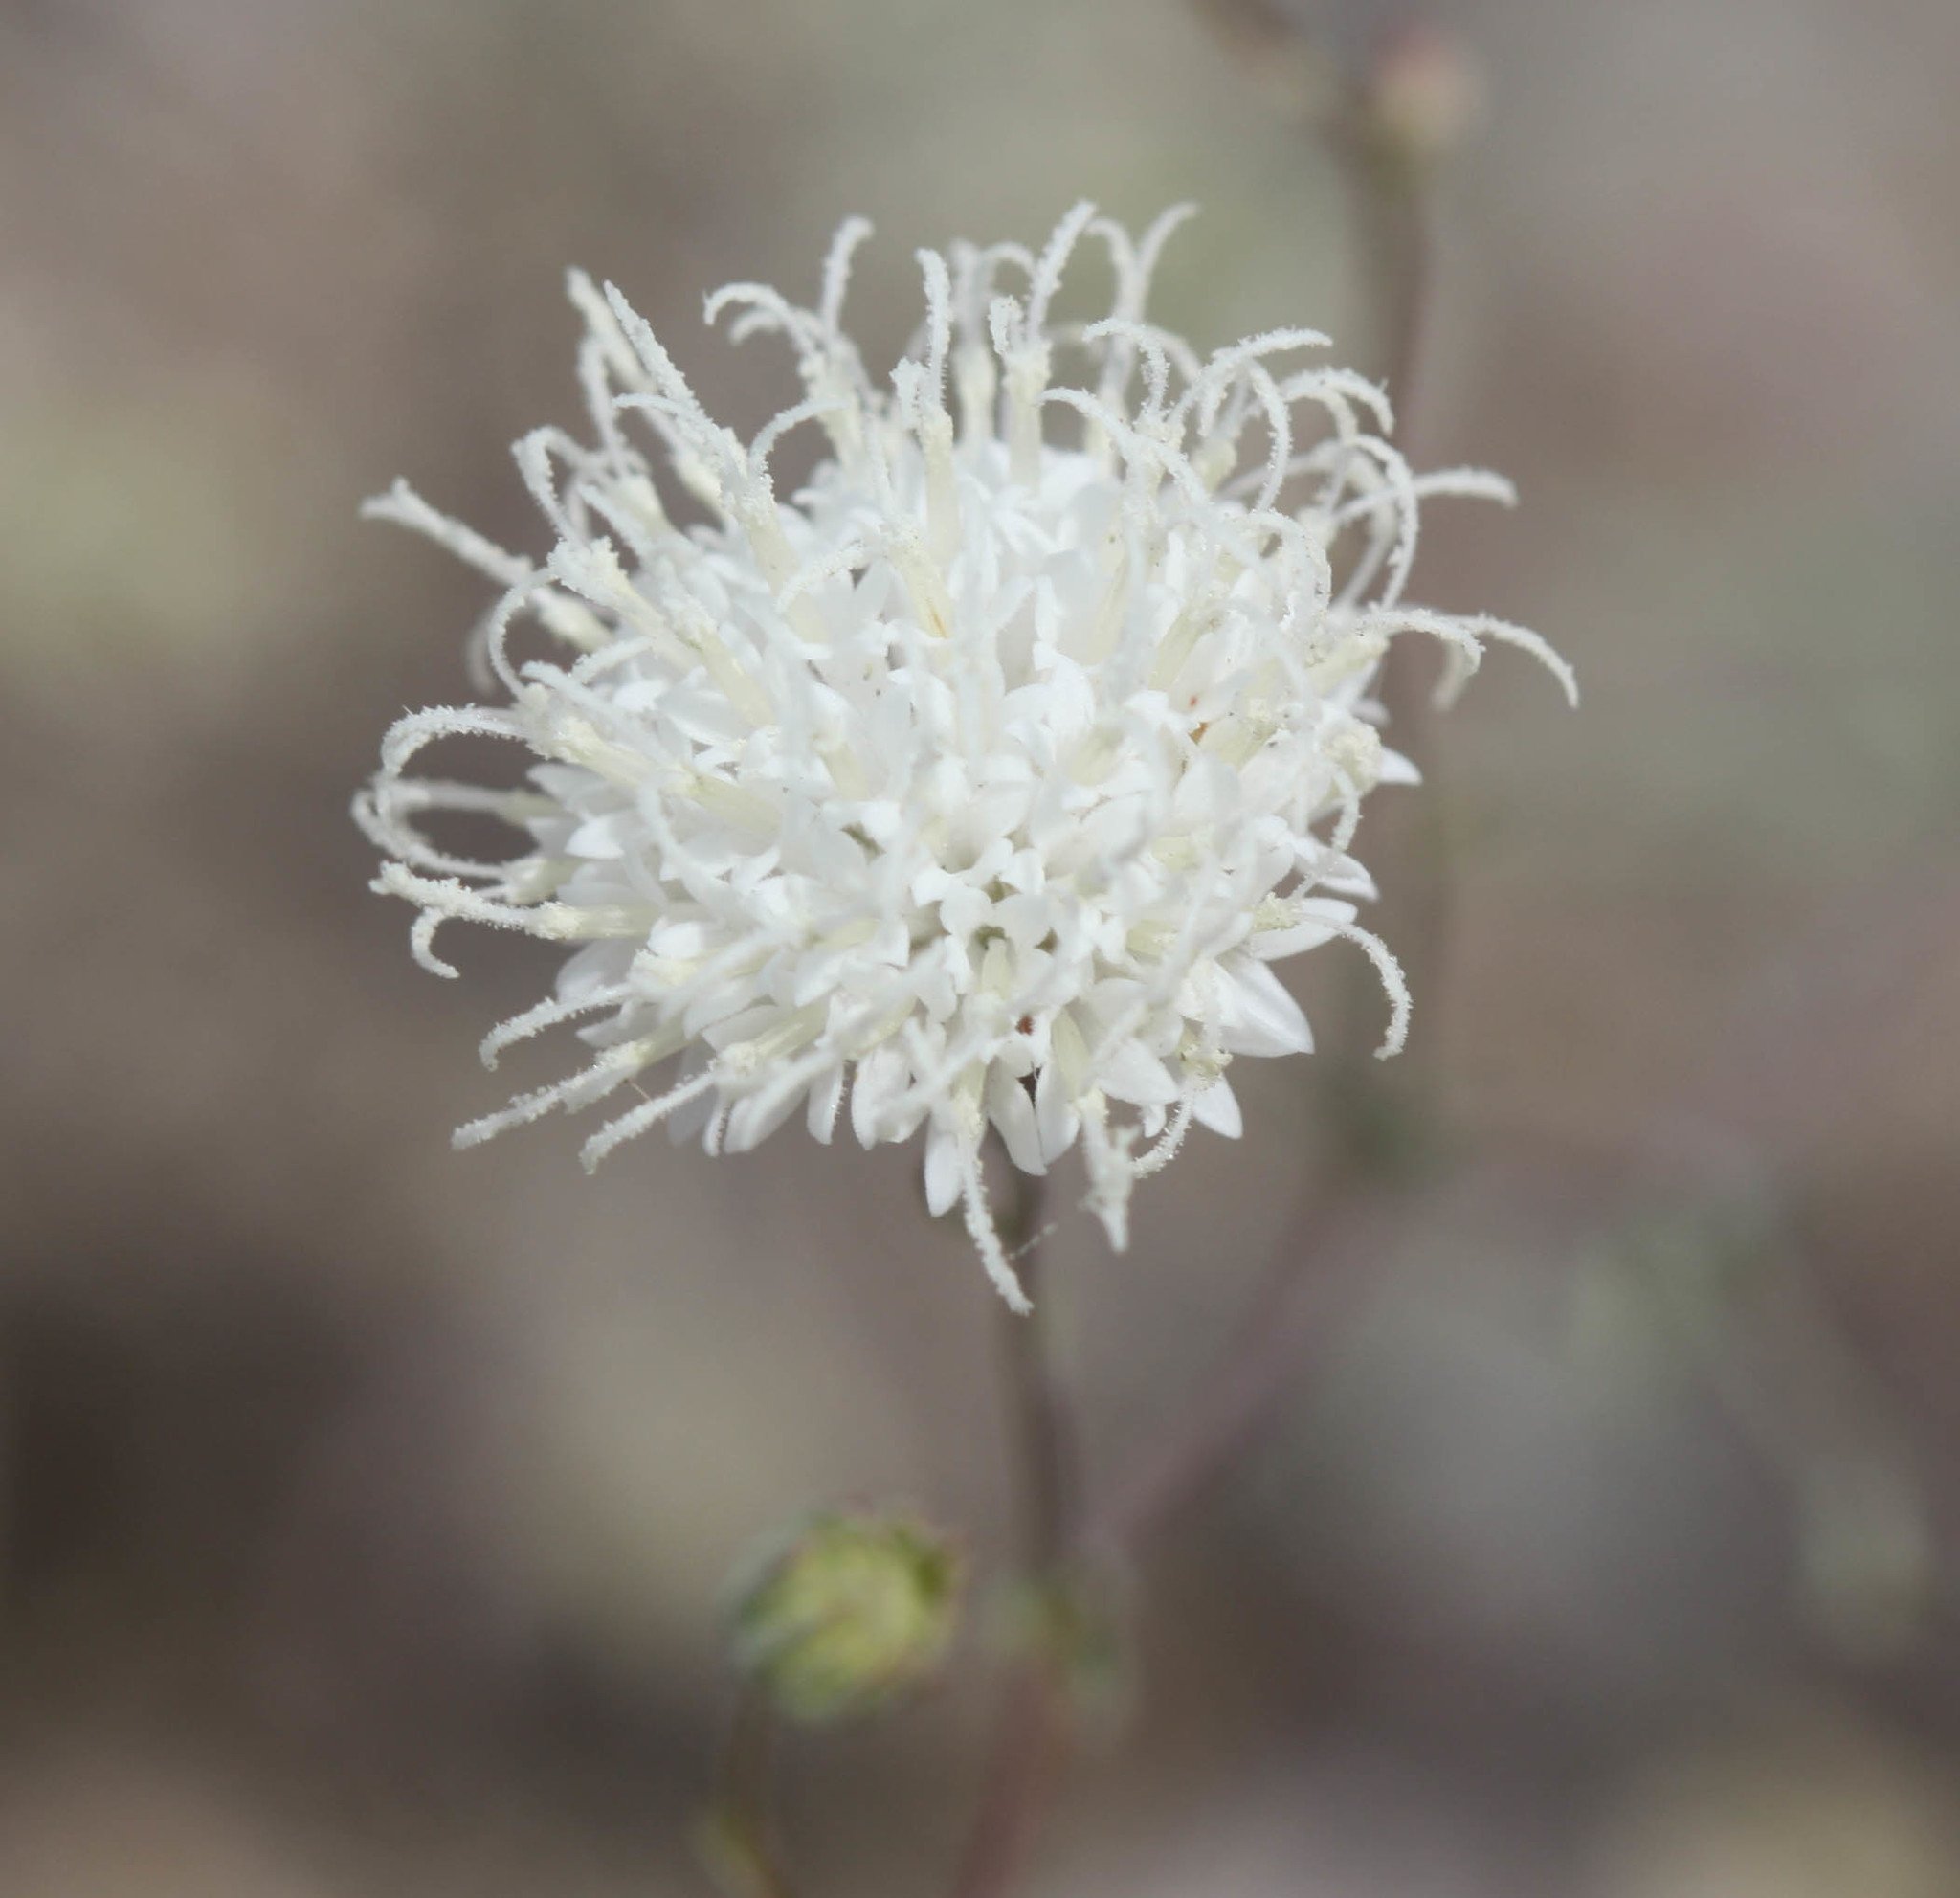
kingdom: Plantae
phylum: Tracheophyta
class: Magnoliopsida
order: Asterales
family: Asteraceae
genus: Chaenactis
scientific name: Chaenactis carphoclinia
